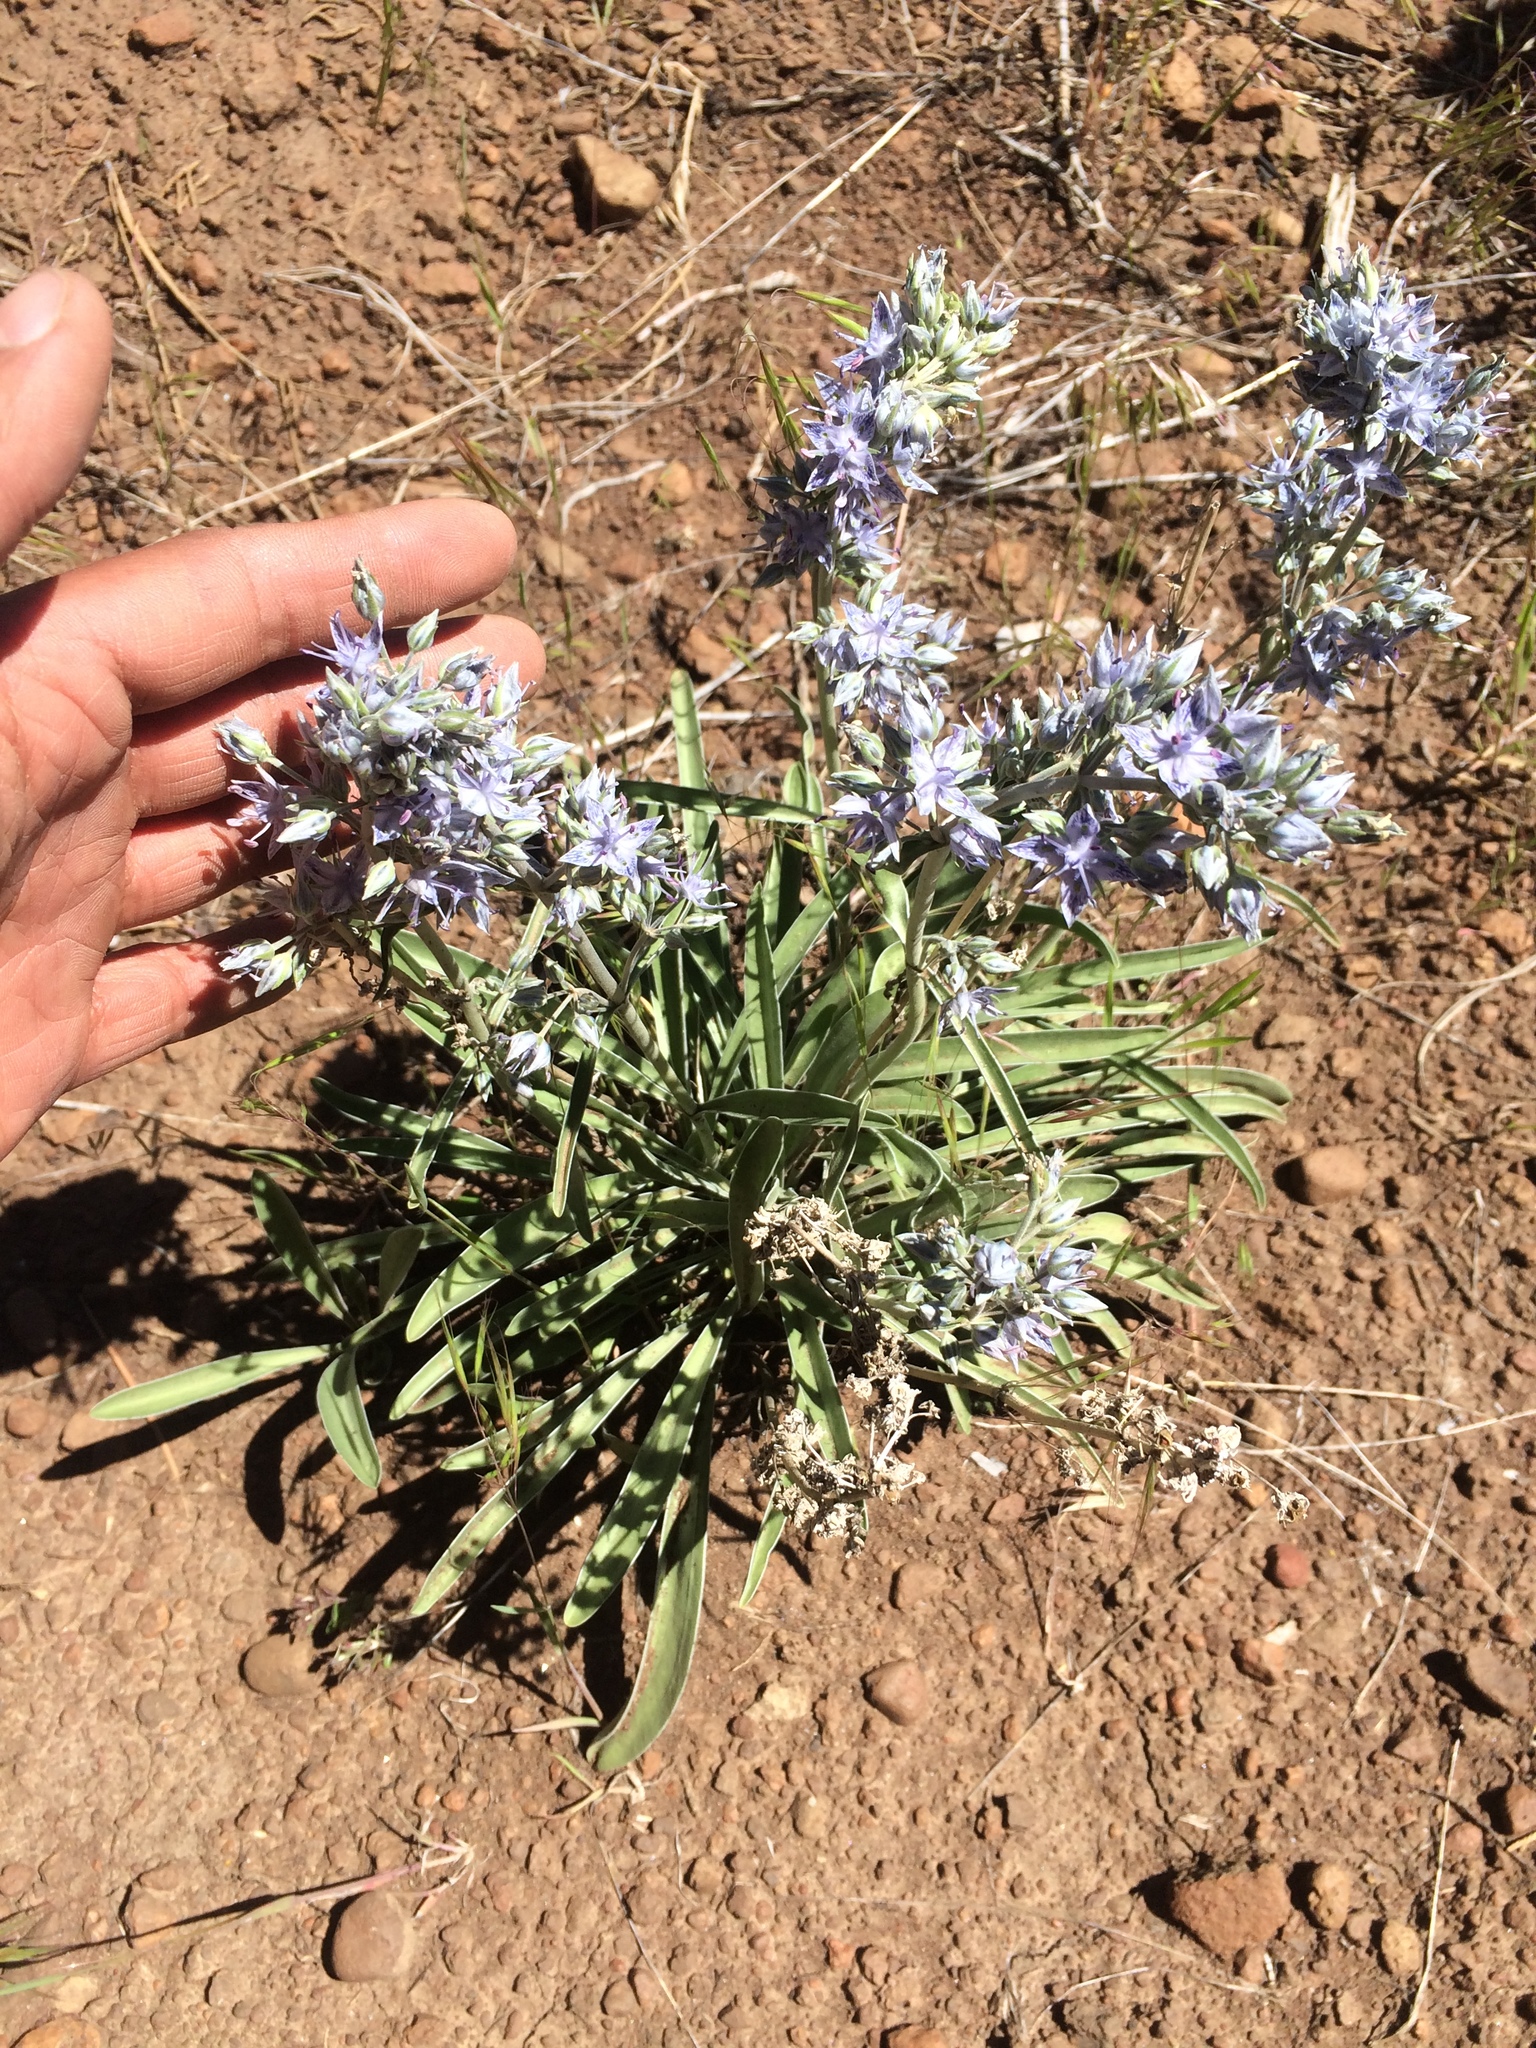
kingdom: Plantae
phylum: Tracheophyta
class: Magnoliopsida
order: Gentianales
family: Gentianaceae
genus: Frasera
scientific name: Frasera albicaulis
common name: Cusick's frasera
